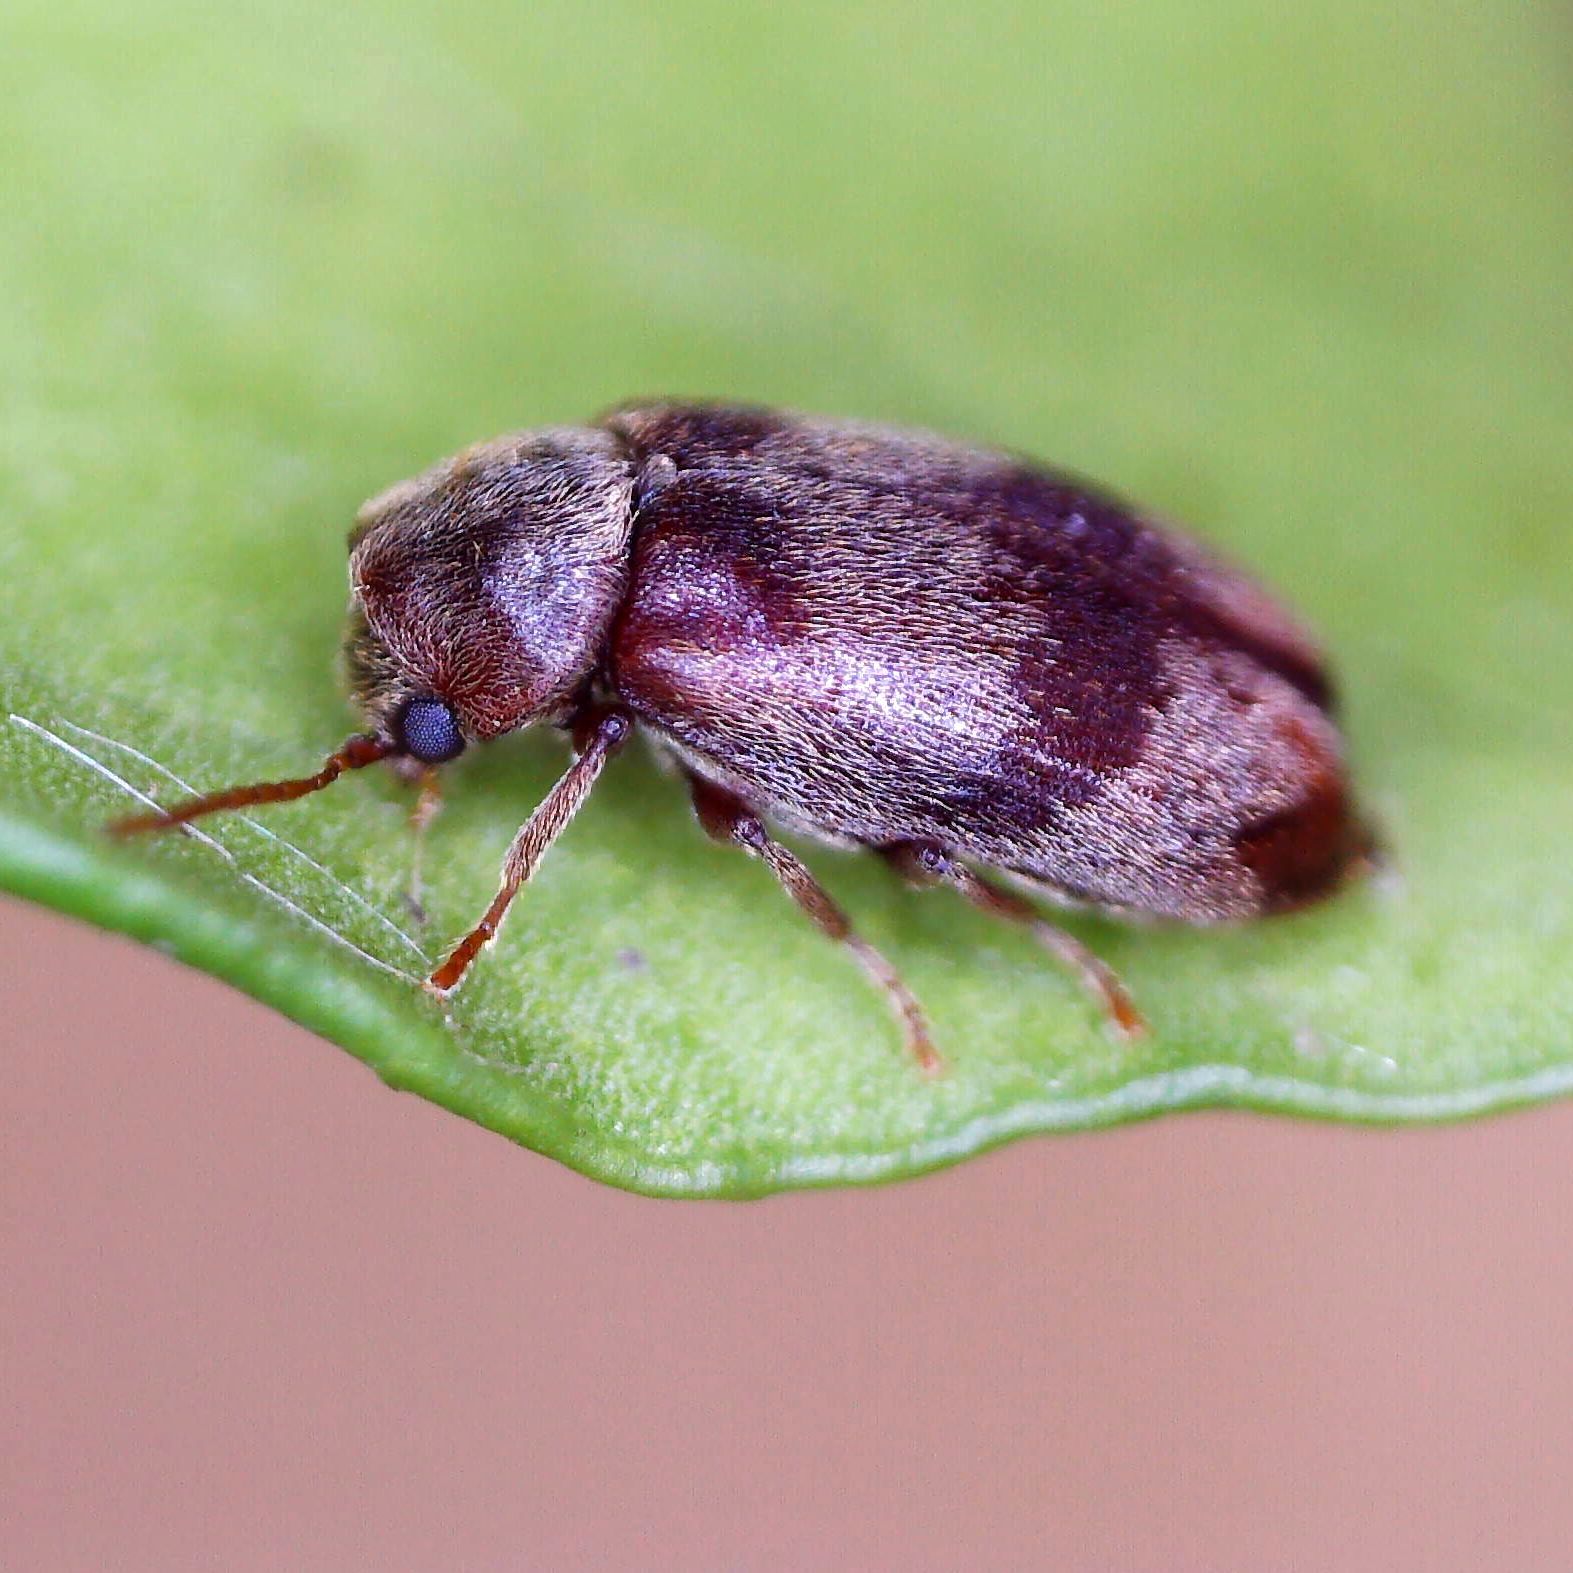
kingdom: Animalia
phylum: Arthropoda
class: Insecta
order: Coleoptera
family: Ptinidae
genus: Ochina
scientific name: Ochina ptinoides
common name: Ivy boring beetle
